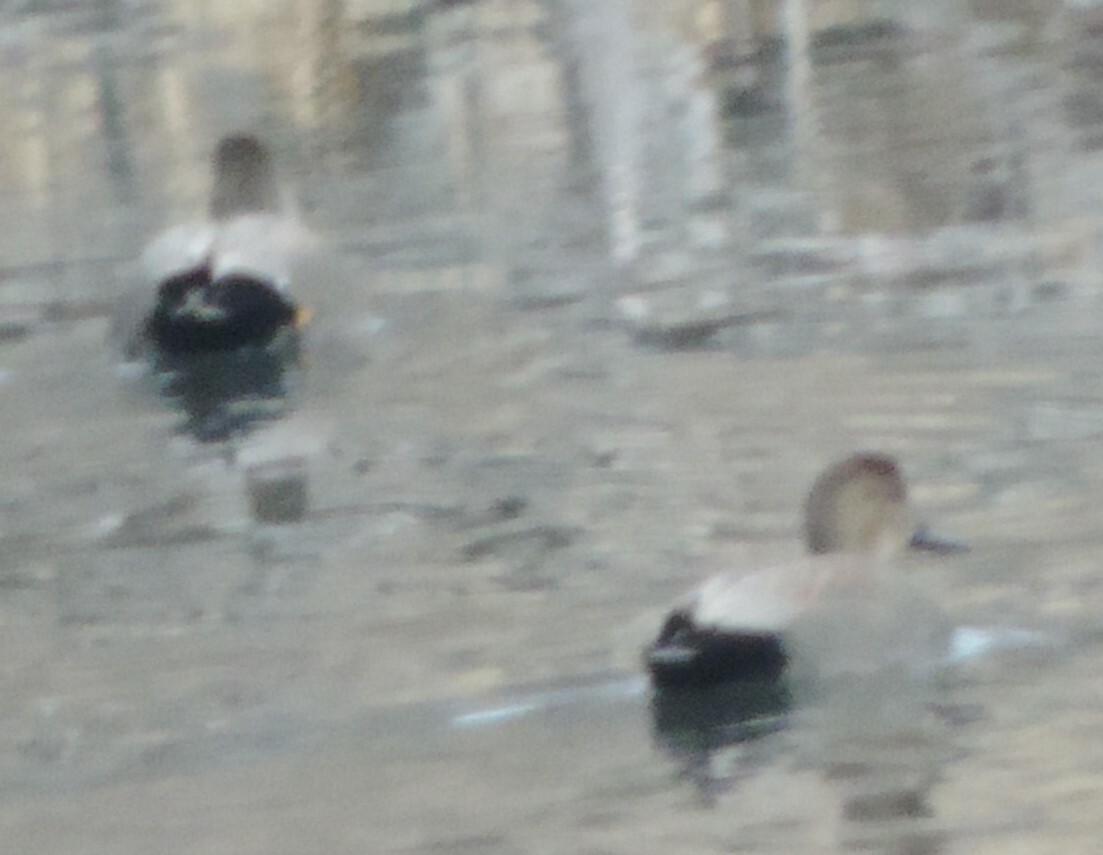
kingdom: Animalia
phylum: Chordata
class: Aves
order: Anseriformes
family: Anatidae
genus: Mareca
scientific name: Mareca strepera
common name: Gadwall
